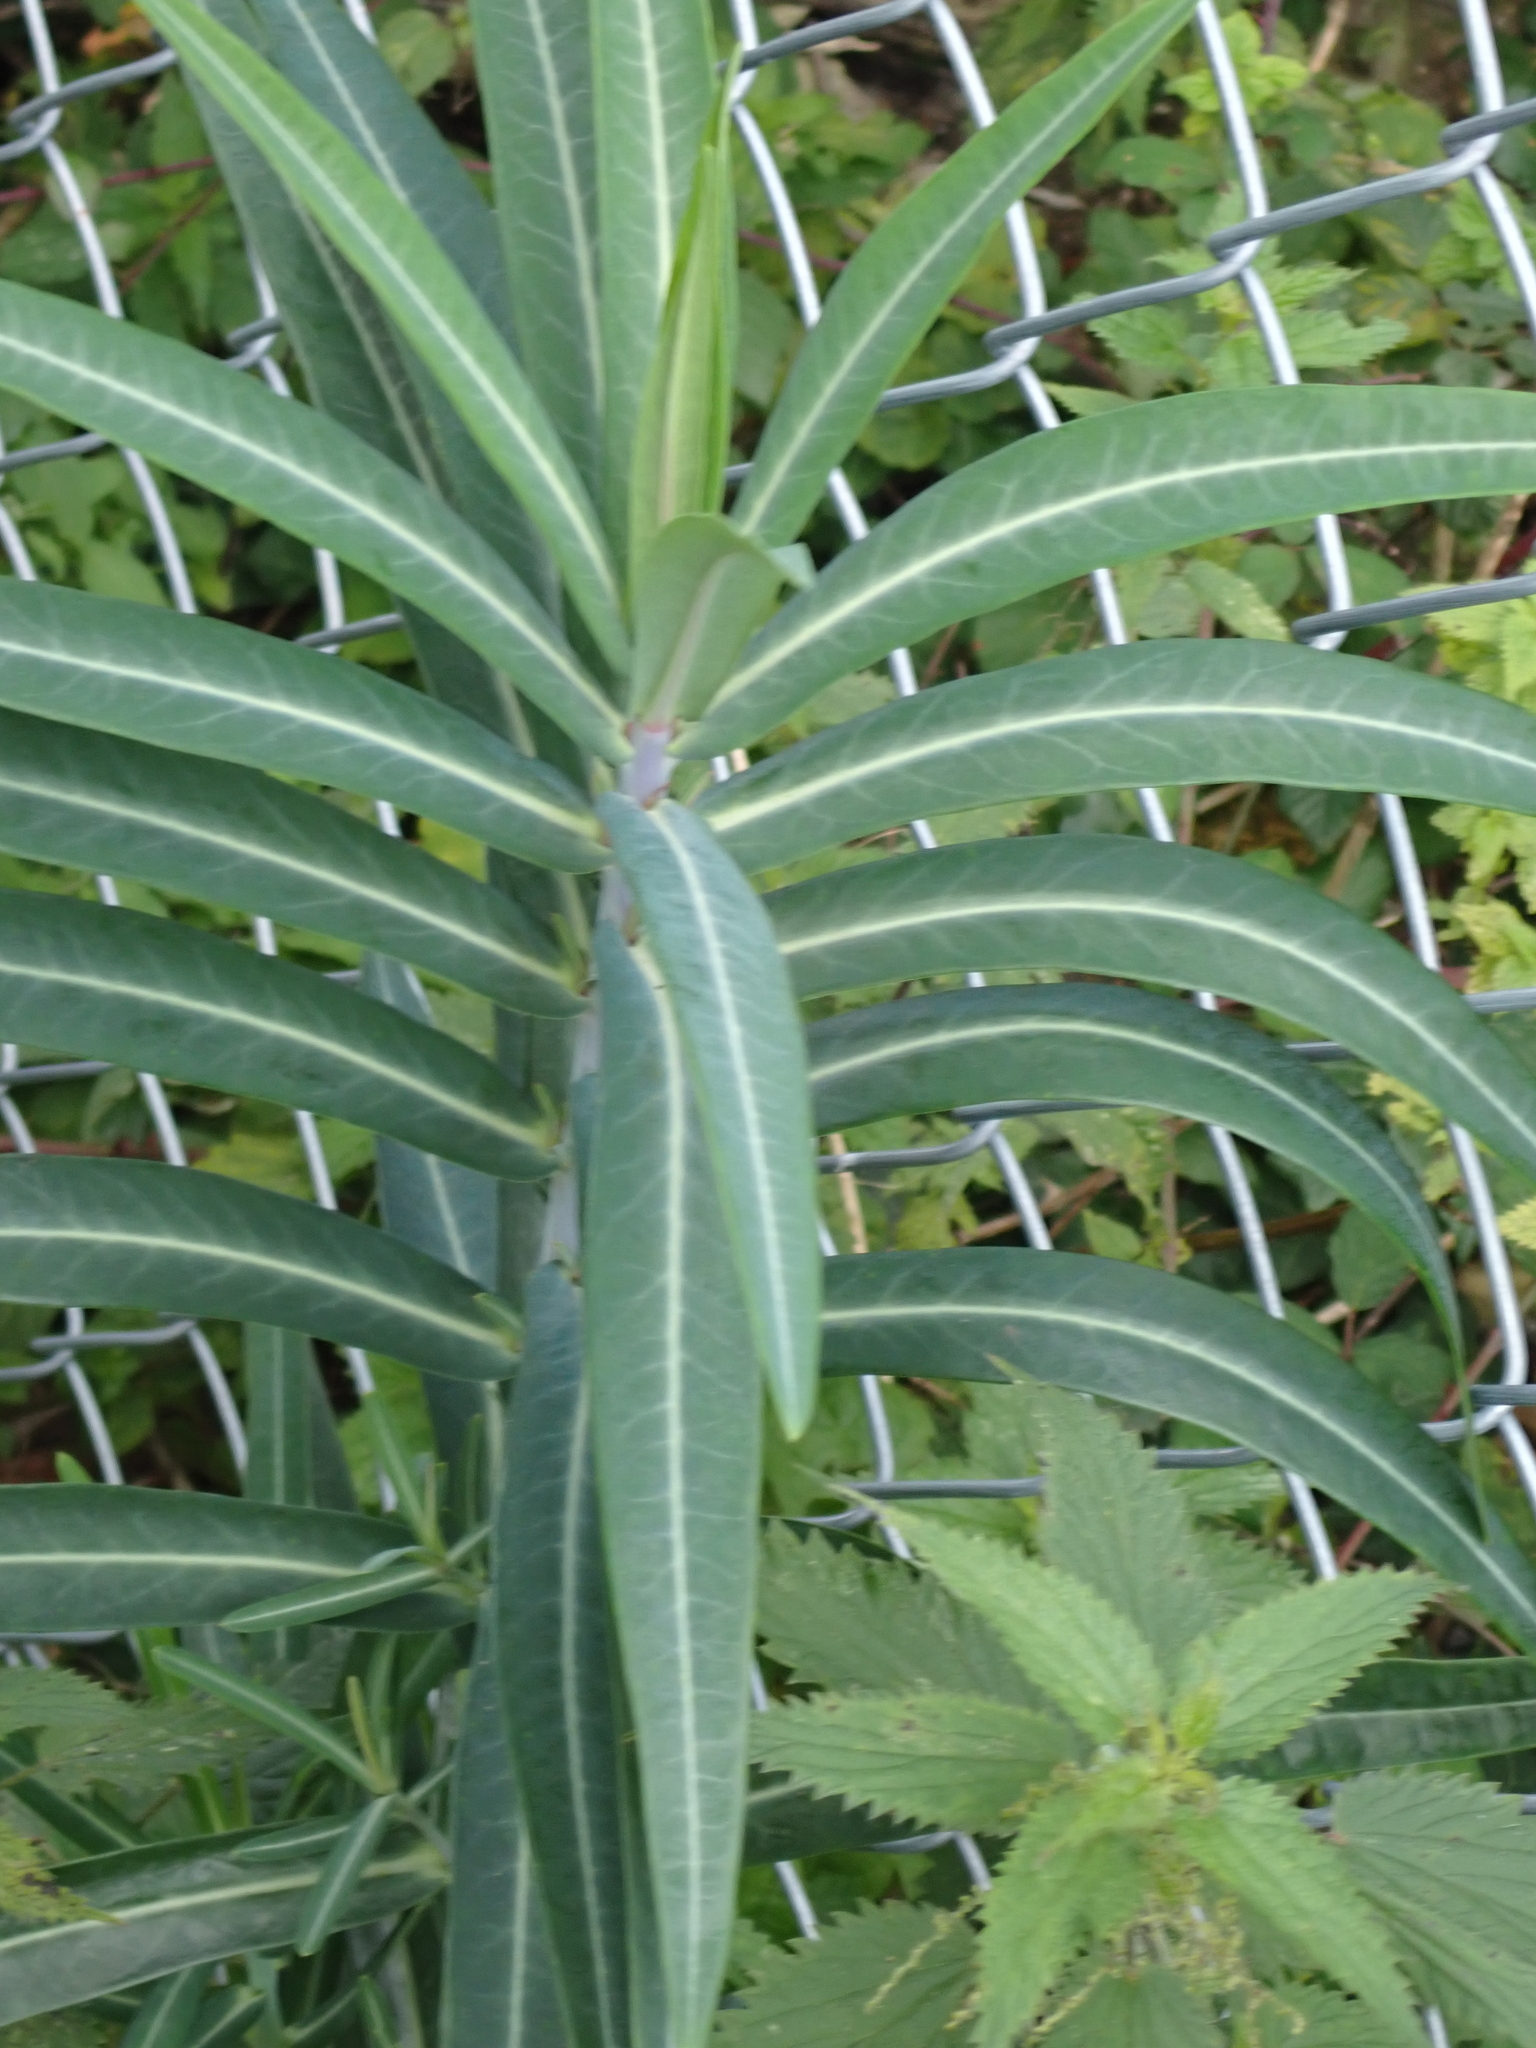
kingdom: Plantae
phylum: Tracheophyta
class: Magnoliopsida
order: Malpighiales
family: Euphorbiaceae
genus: Euphorbia
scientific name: Euphorbia lathyris
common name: Caper spurge
